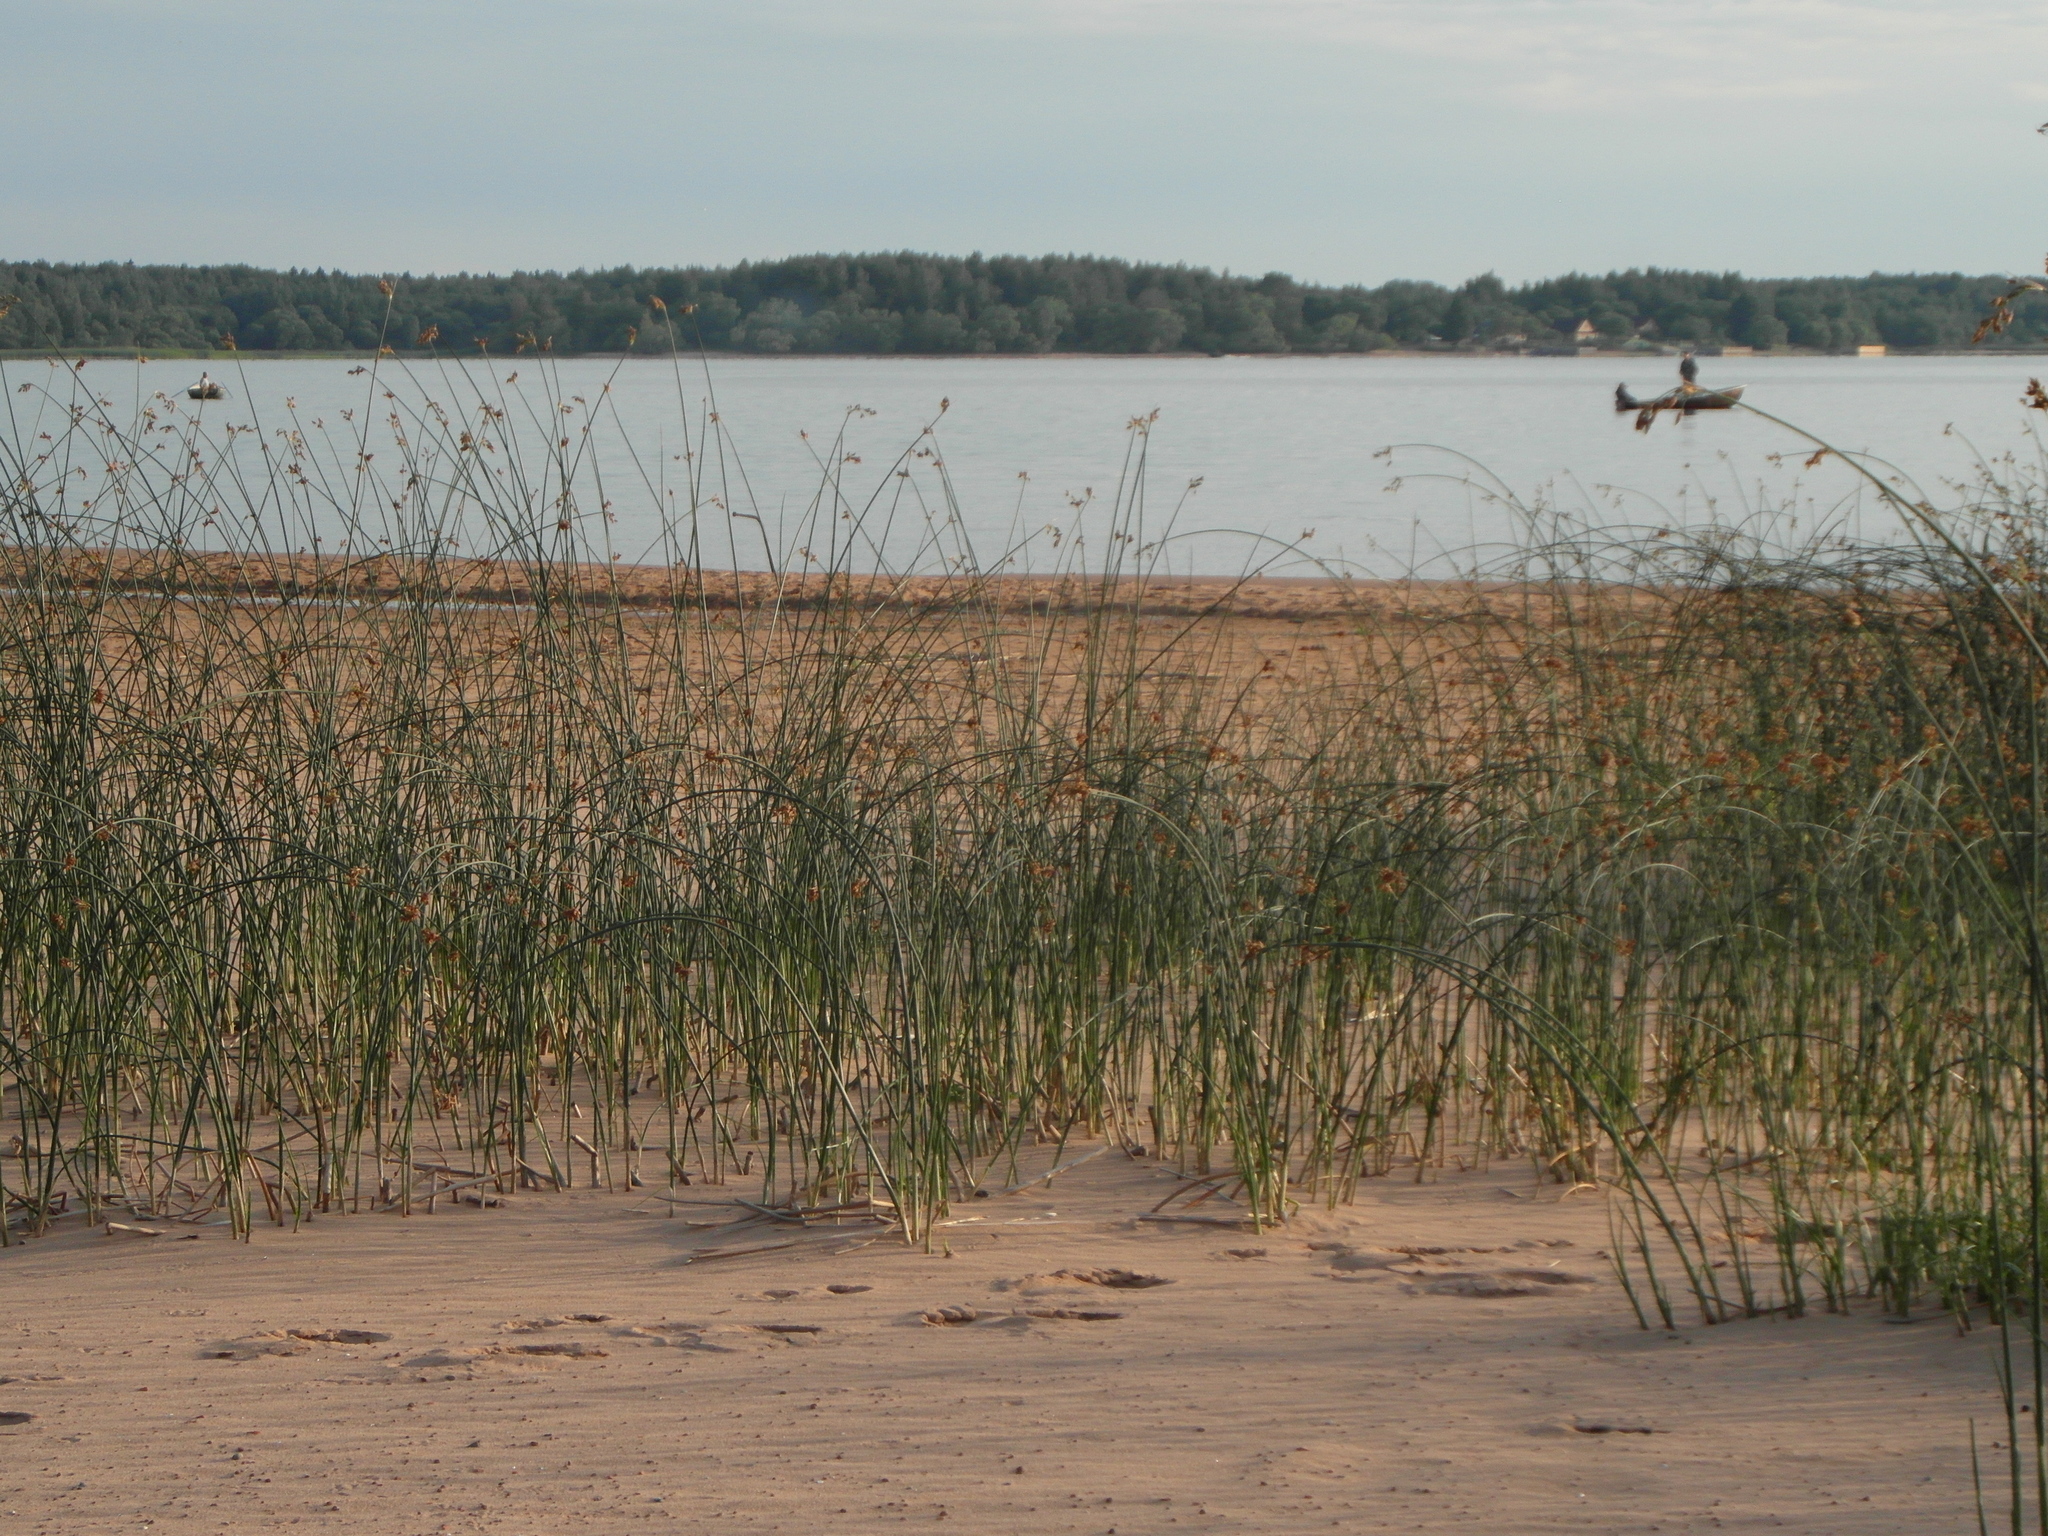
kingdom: Plantae
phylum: Tracheophyta
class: Liliopsida
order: Poales
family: Cyperaceae
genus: Schoenoplectus
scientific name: Schoenoplectus lacustris
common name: Common club-rush
